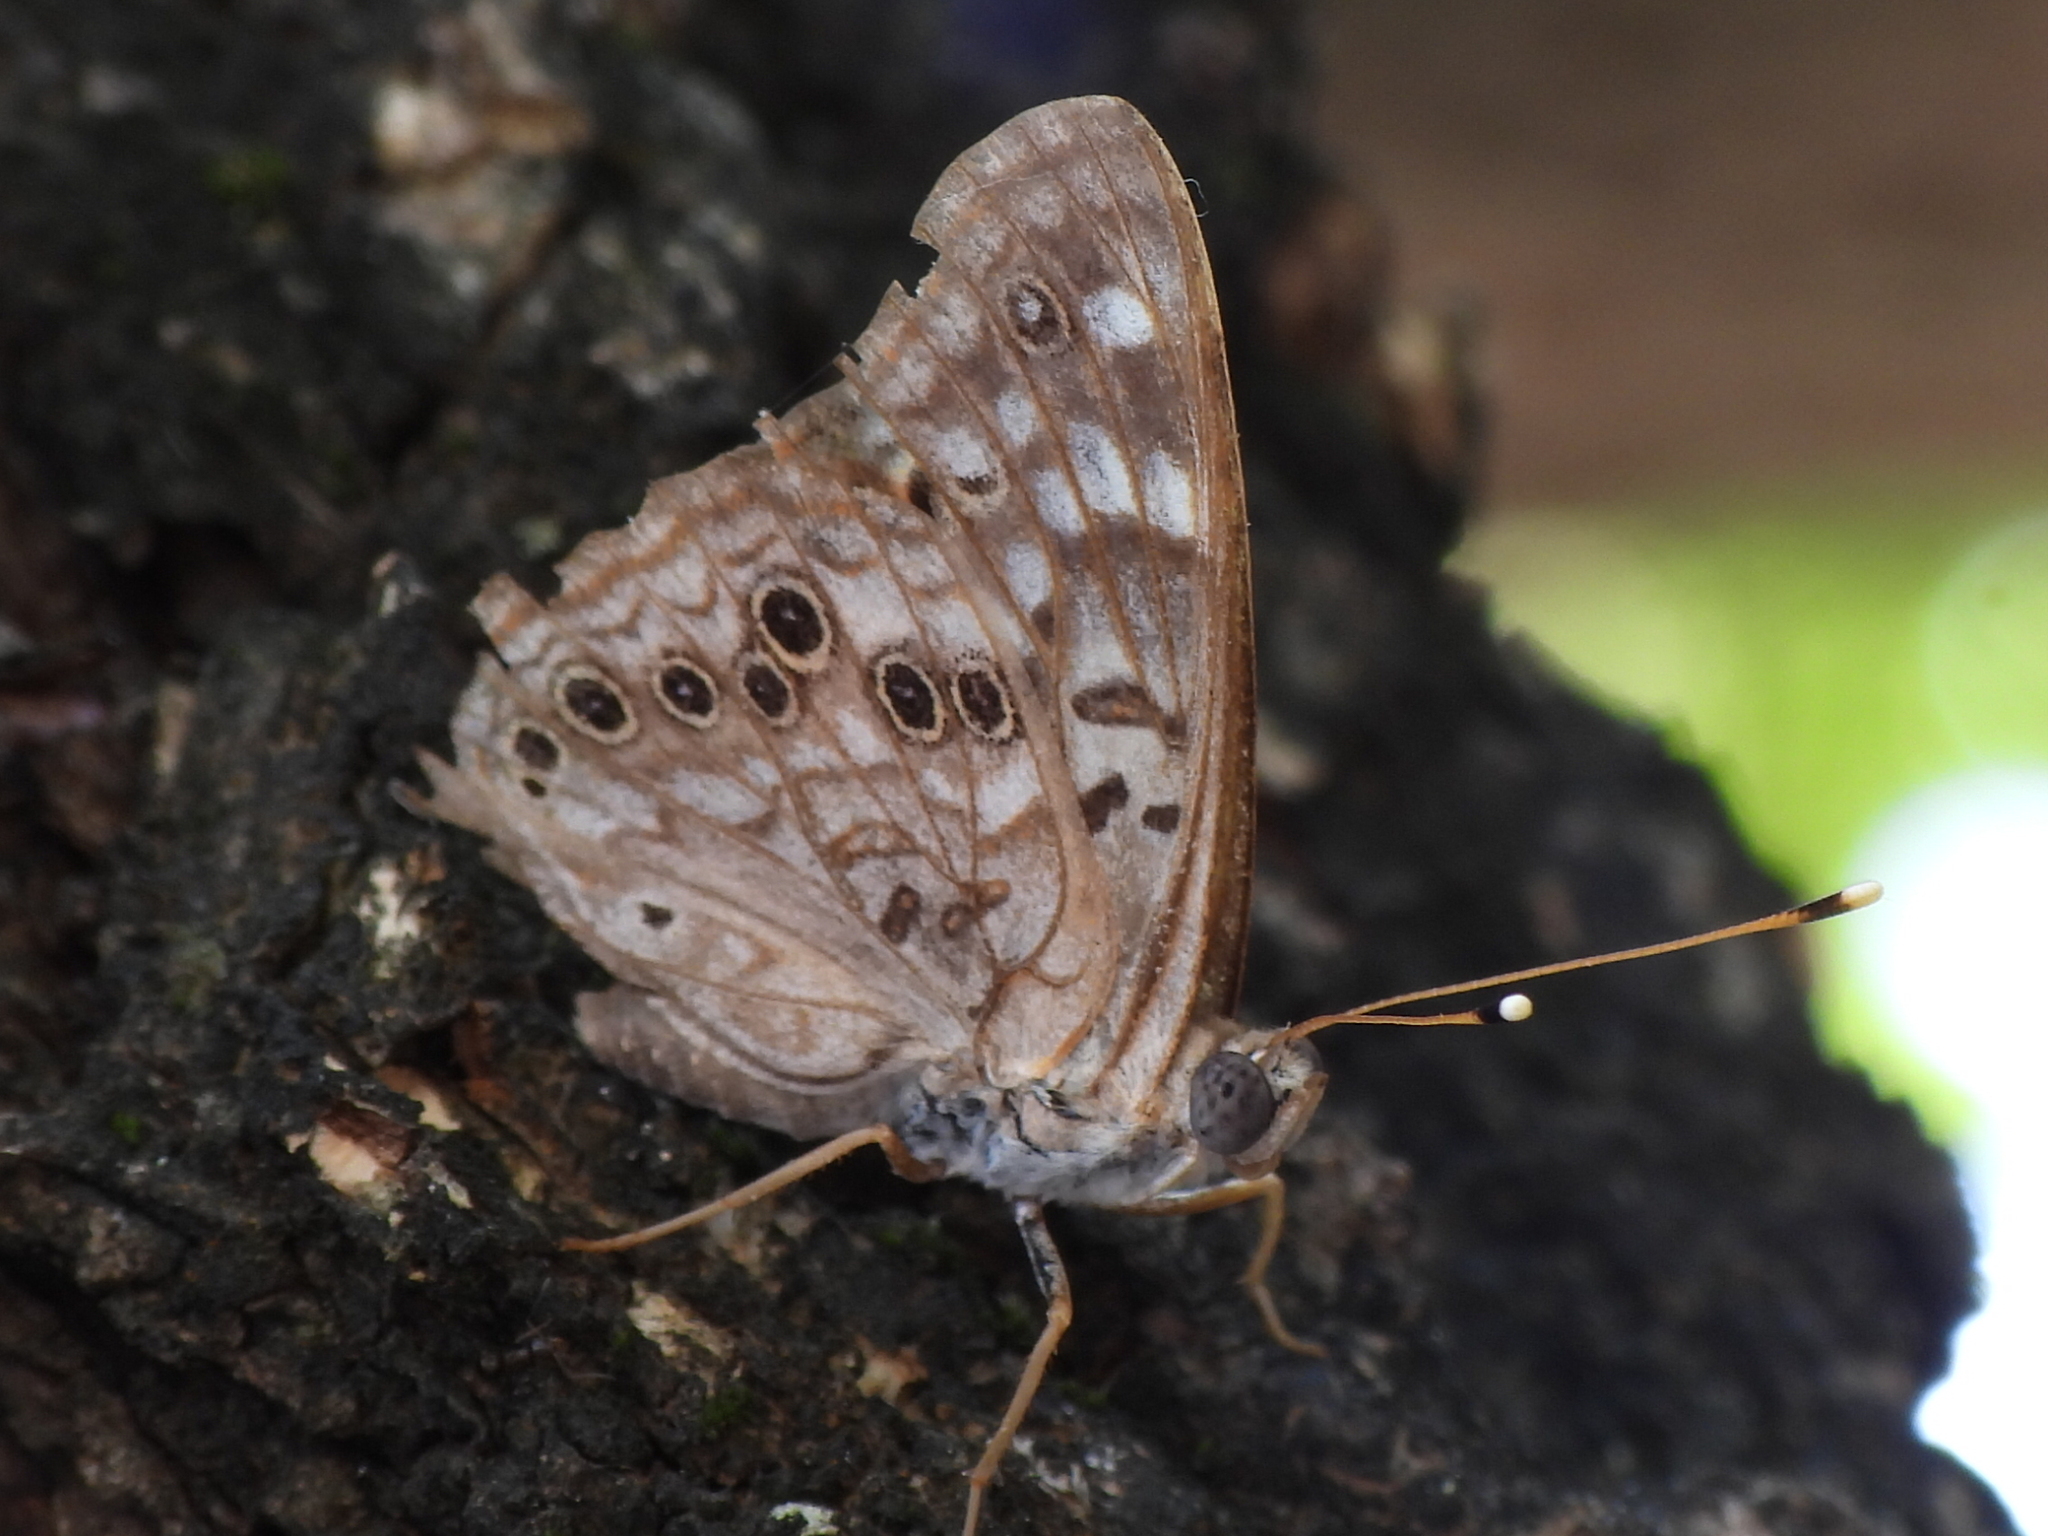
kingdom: Animalia
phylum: Arthropoda
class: Insecta
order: Lepidoptera
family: Nymphalidae
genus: Asterocampa
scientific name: Asterocampa celtis
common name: Hackberry emperor
